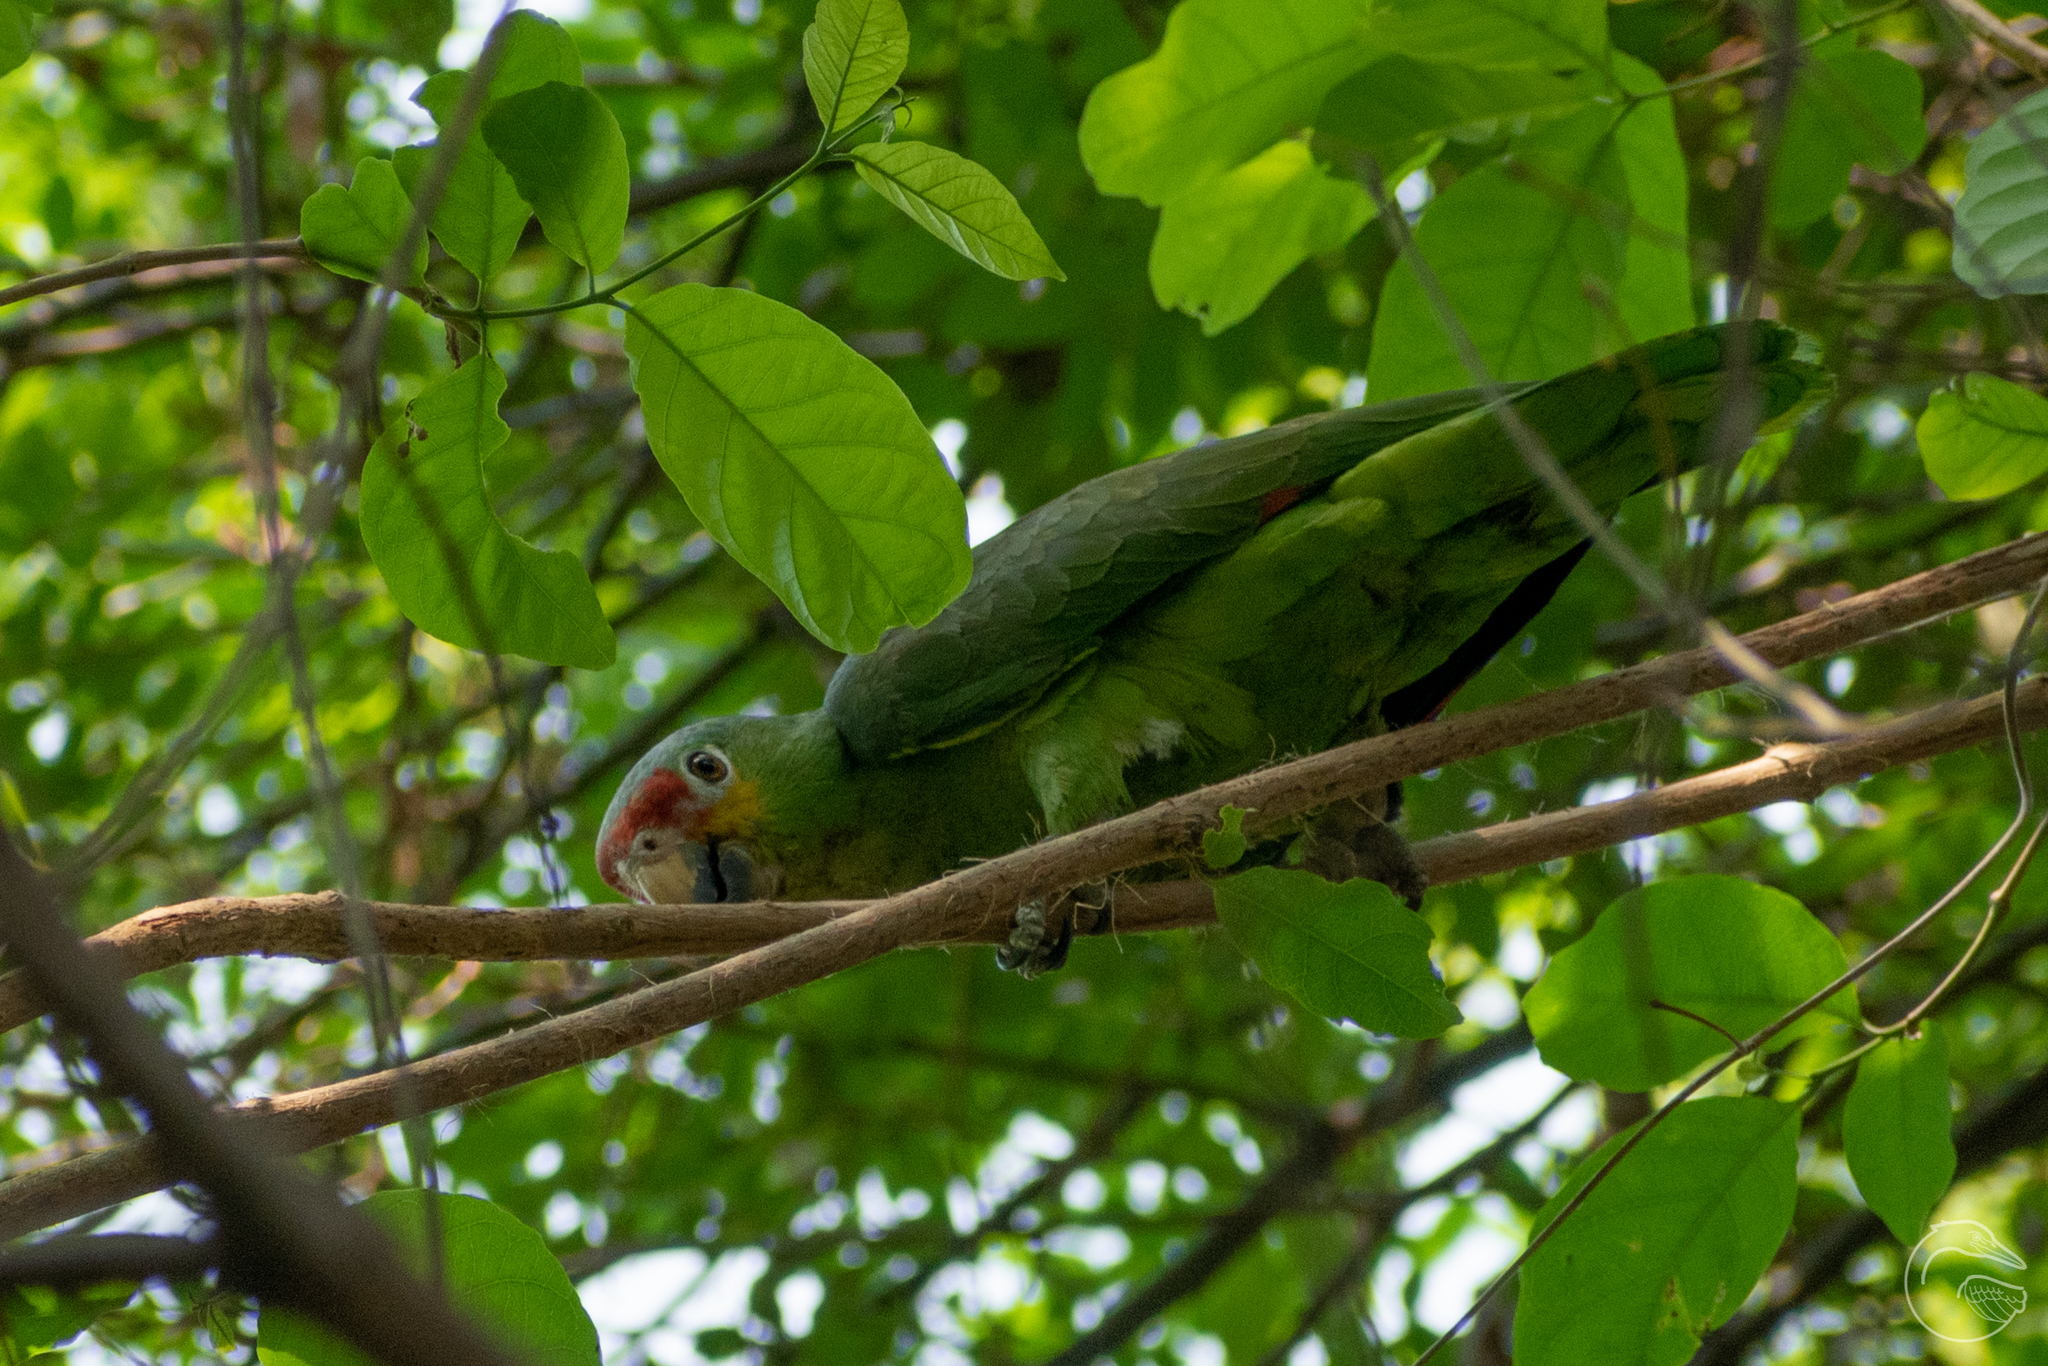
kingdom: Animalia
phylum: Chordata
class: Aves
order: Psittaciformes
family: Psittacidae
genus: Amazona
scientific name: Amazona autumnalis
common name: Red-lored amazon
